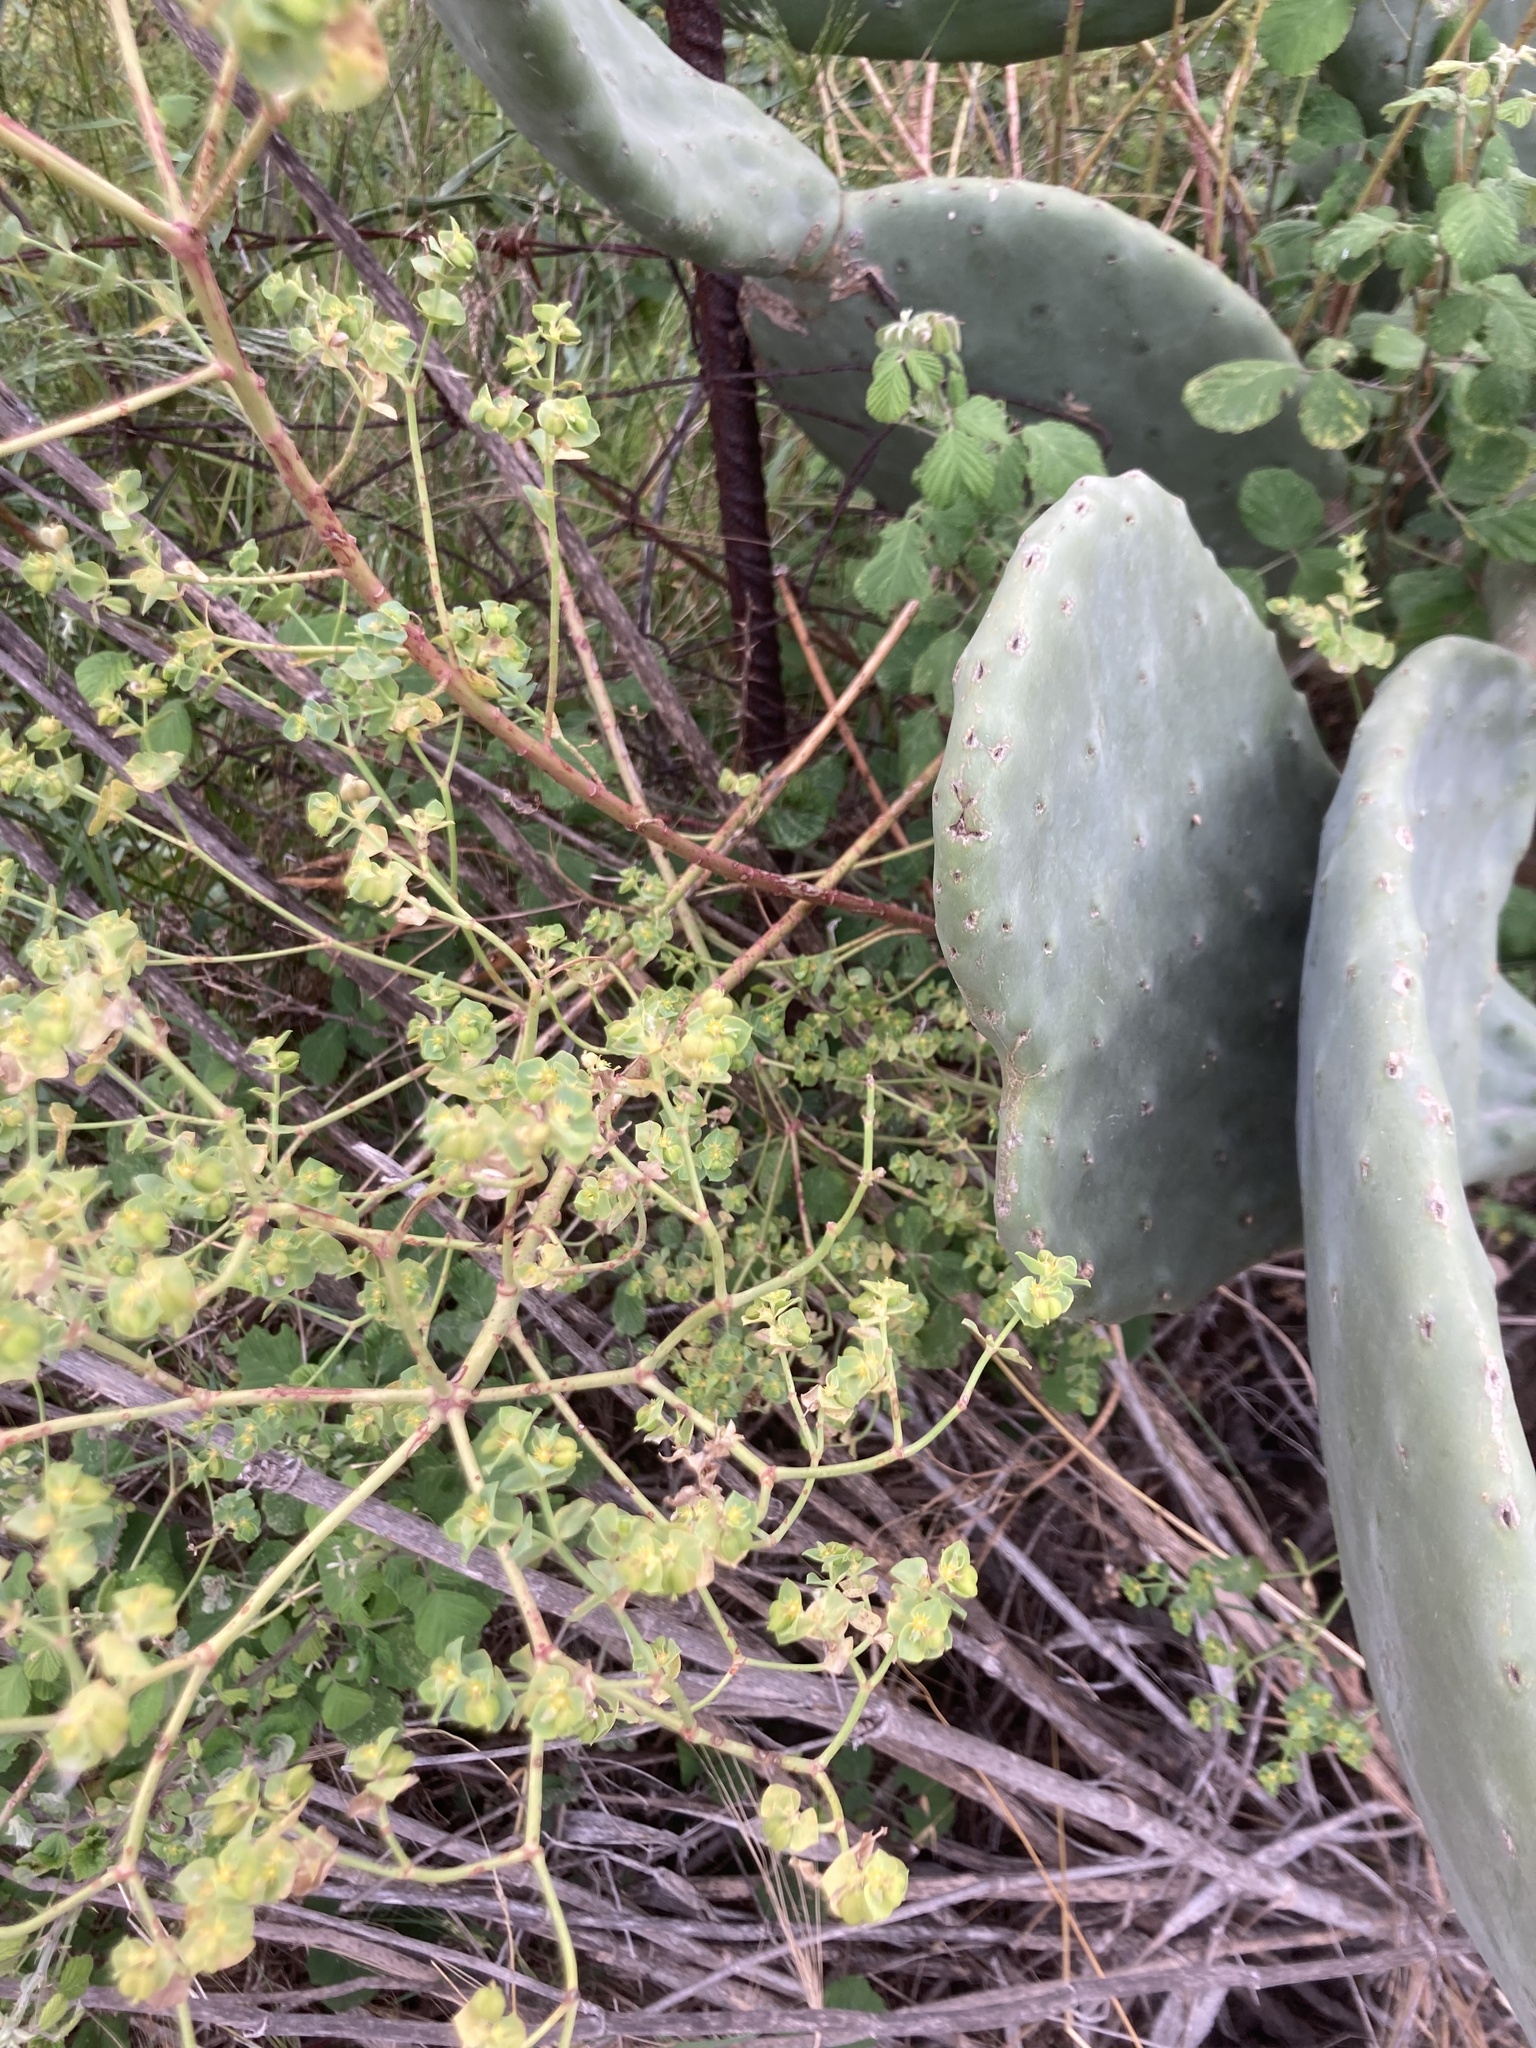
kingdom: Plantae
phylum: Tracheophyta
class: Magnoliopsida
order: Malpighiales
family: Euphorbiaceae
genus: Euphorbia
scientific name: Euphorbia terracina
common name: Geraldton carnation weed
